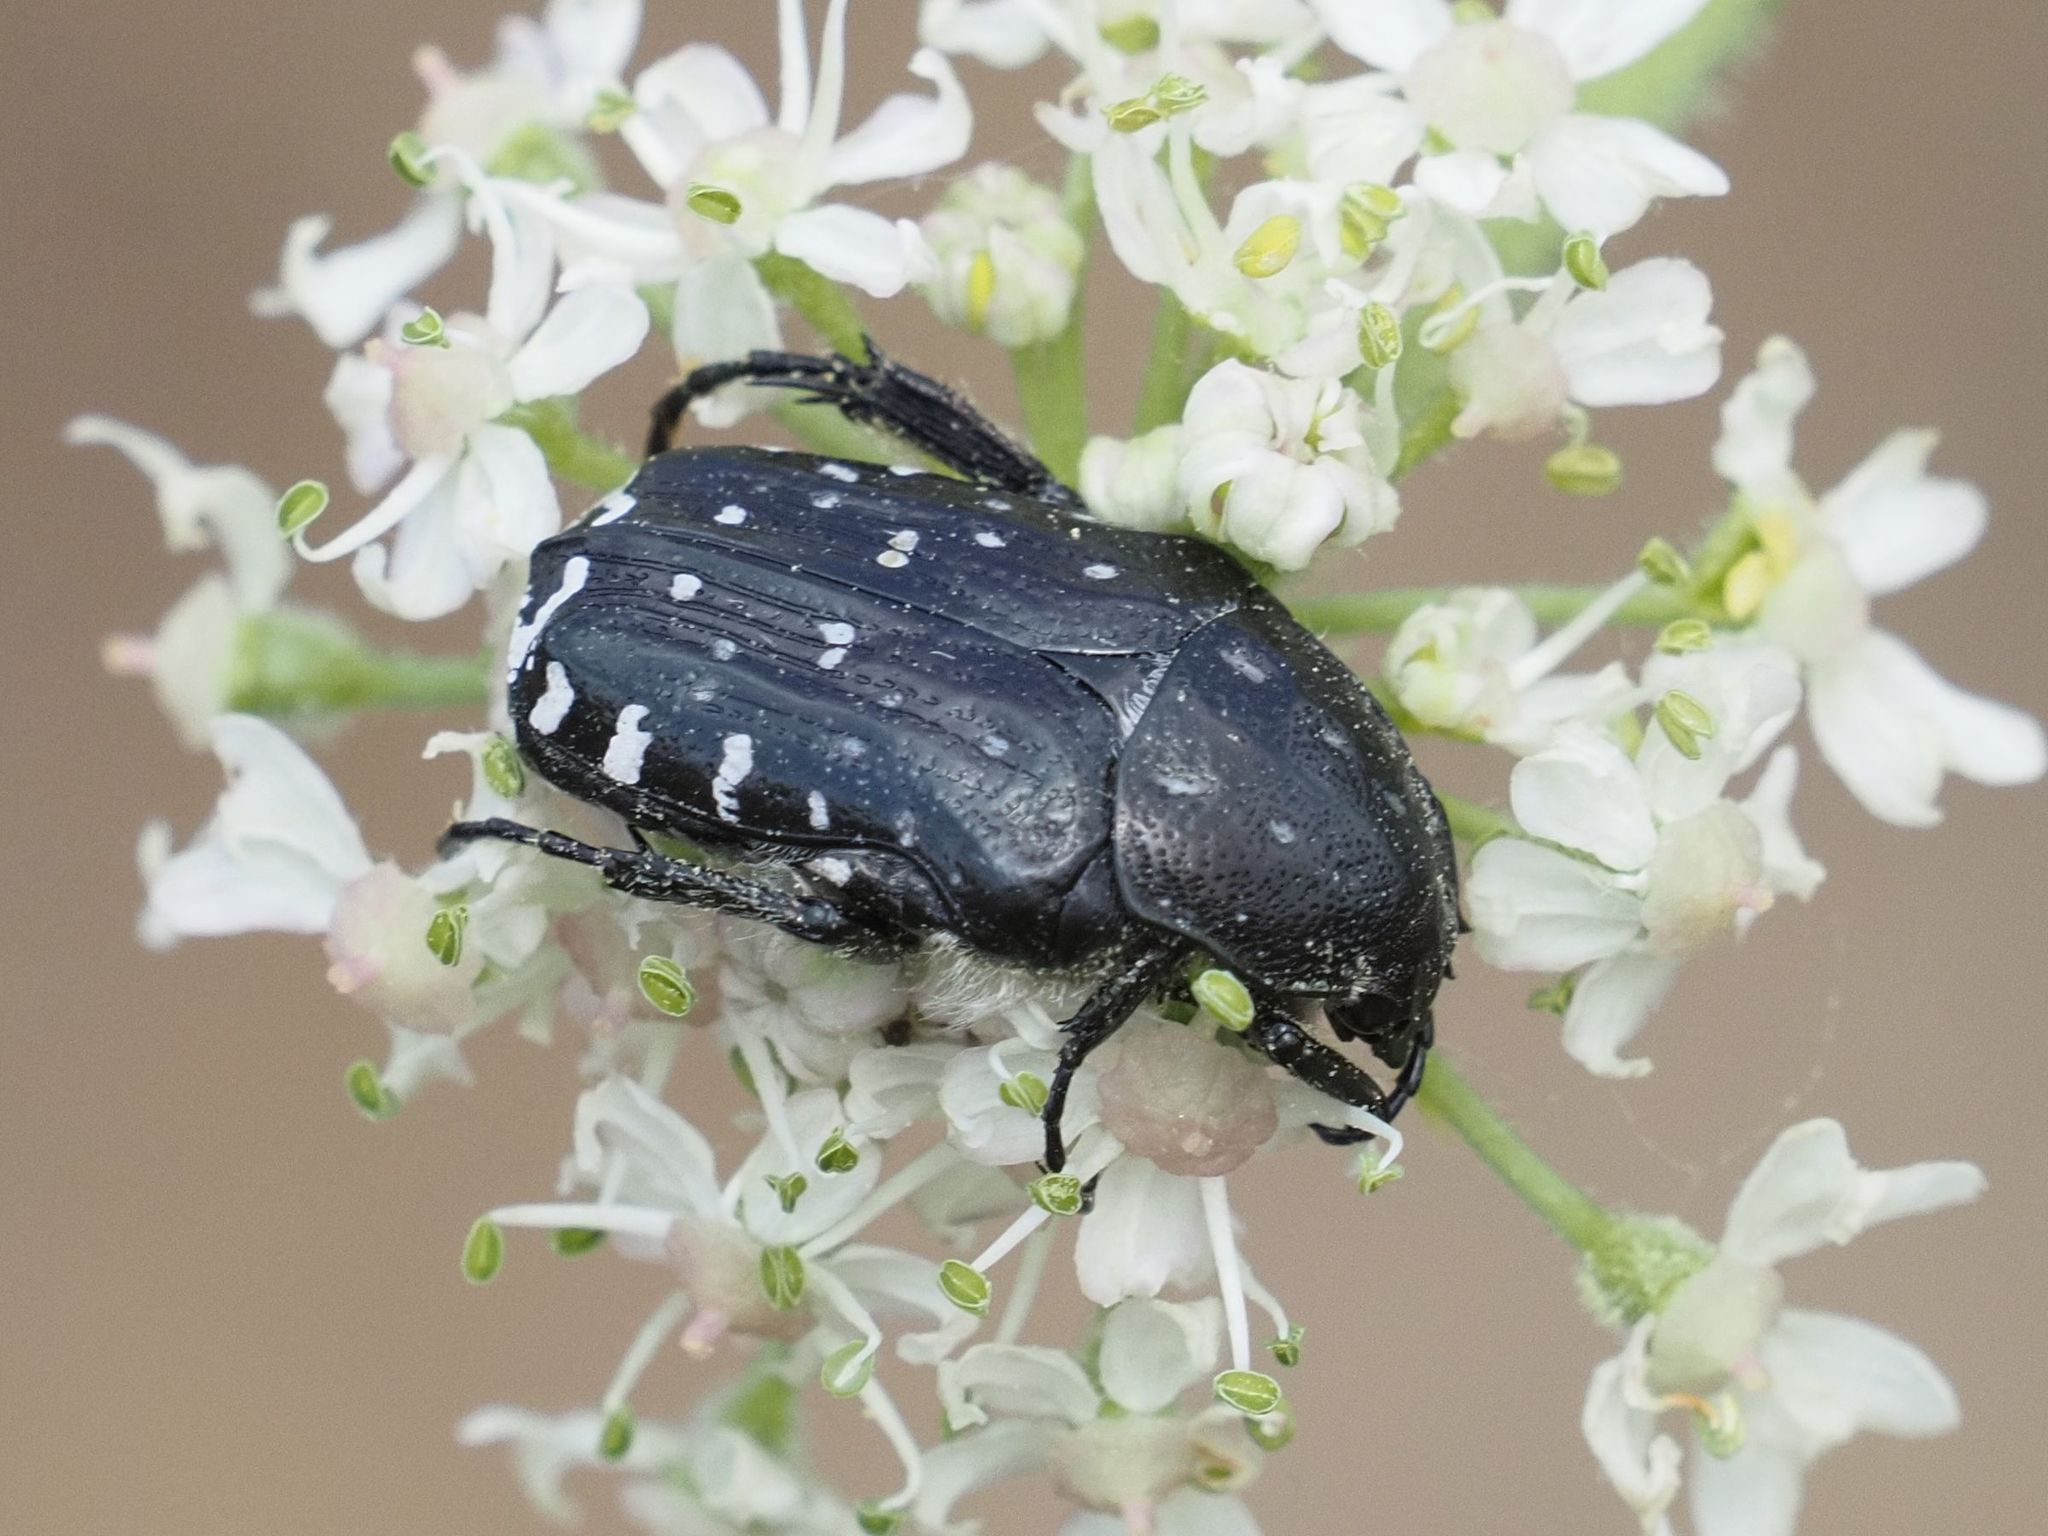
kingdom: Animalia
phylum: Arthropoda
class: Insecta
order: Coleoptera
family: Scarabaeidae
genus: Oxythyrea
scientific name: Oxythyrea funesta
